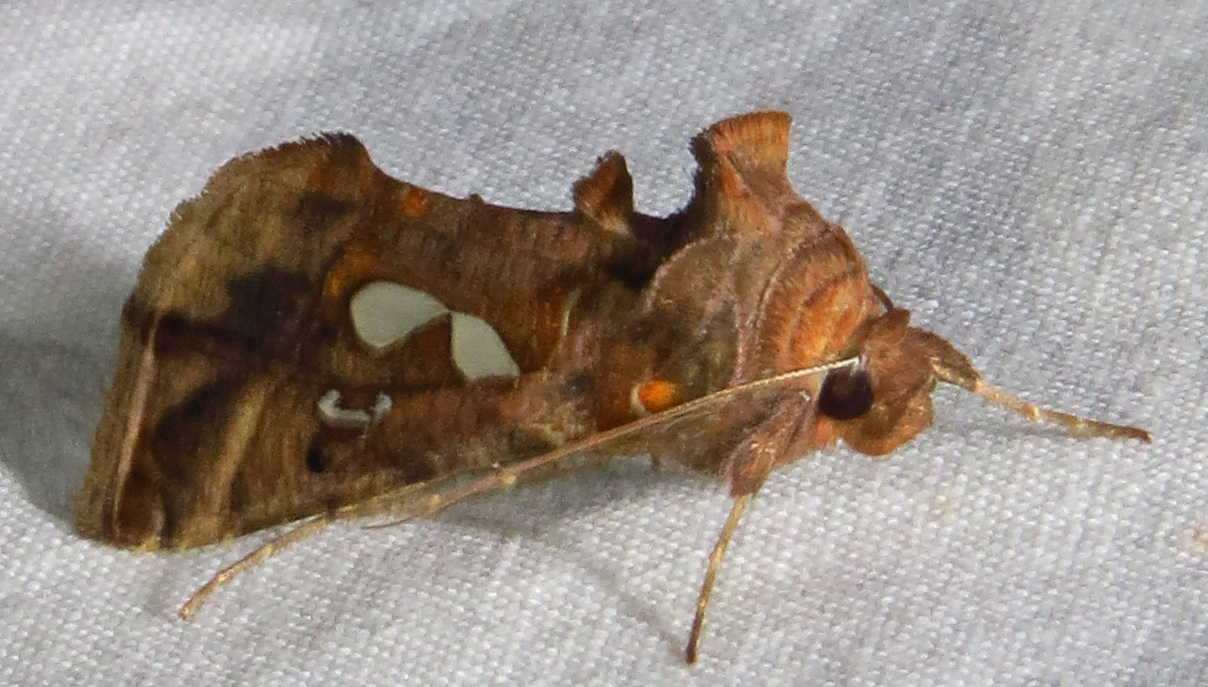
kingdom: Animalia
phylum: Arthropoda
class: Insecta
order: Lepidoptera
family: Noctuidae
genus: Megalographa
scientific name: Megalographa biloba
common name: Cutworm
